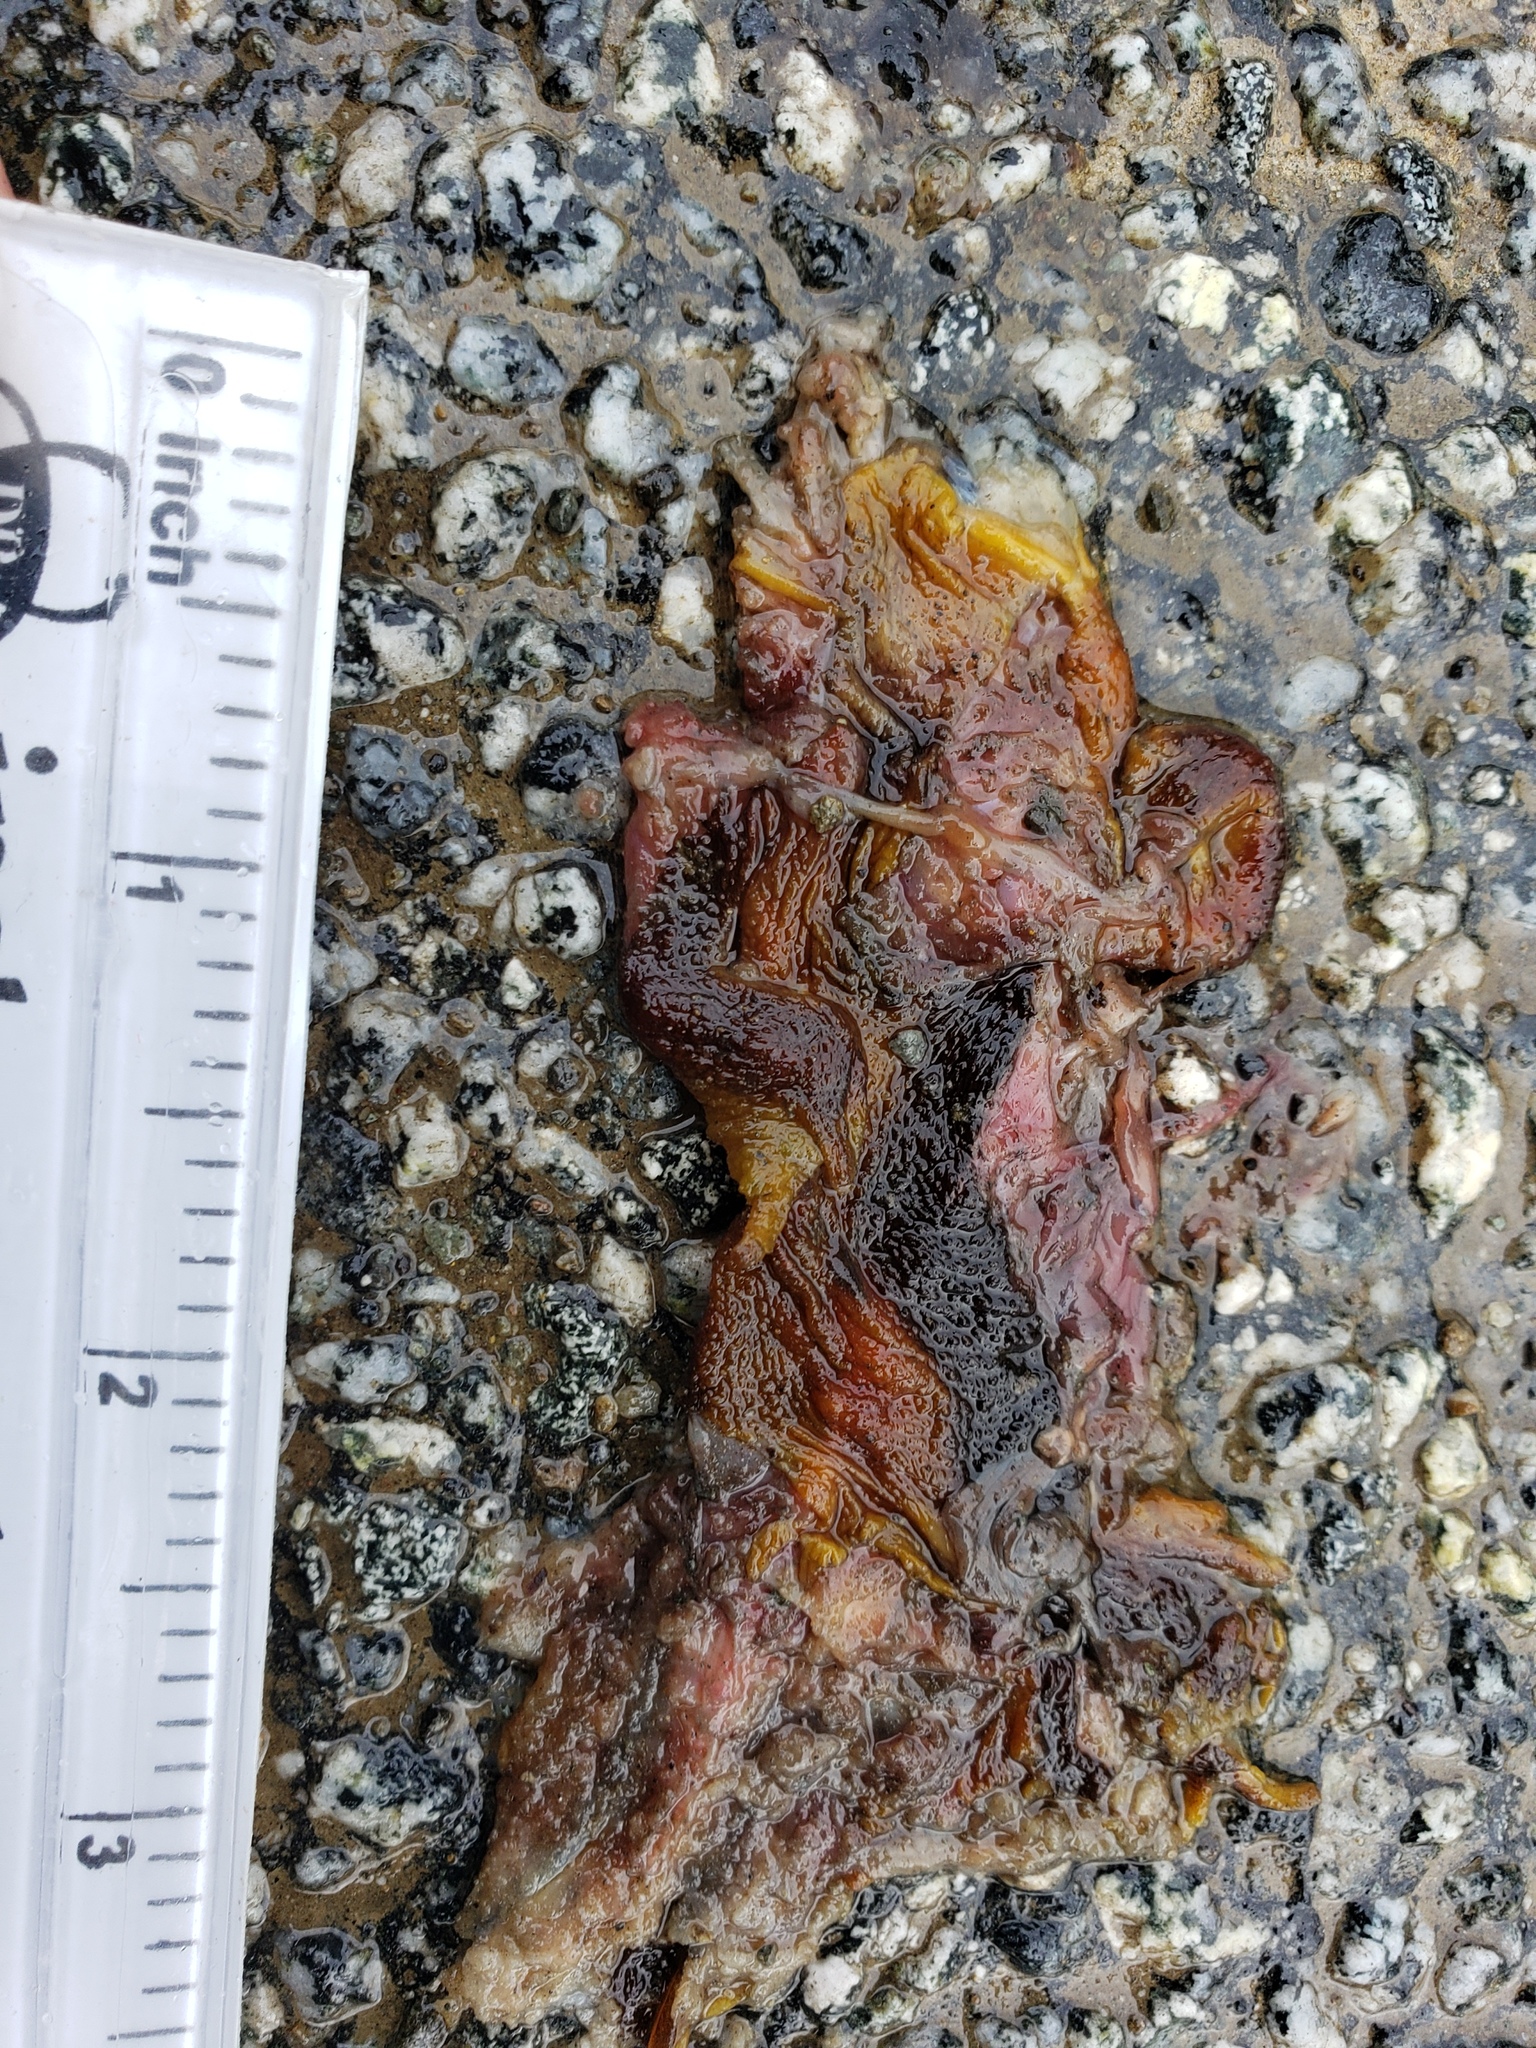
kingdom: Animalia
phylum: Chordata
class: Amphibia
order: Caudata
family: Salamandridae
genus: Taricha
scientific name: Taricha
